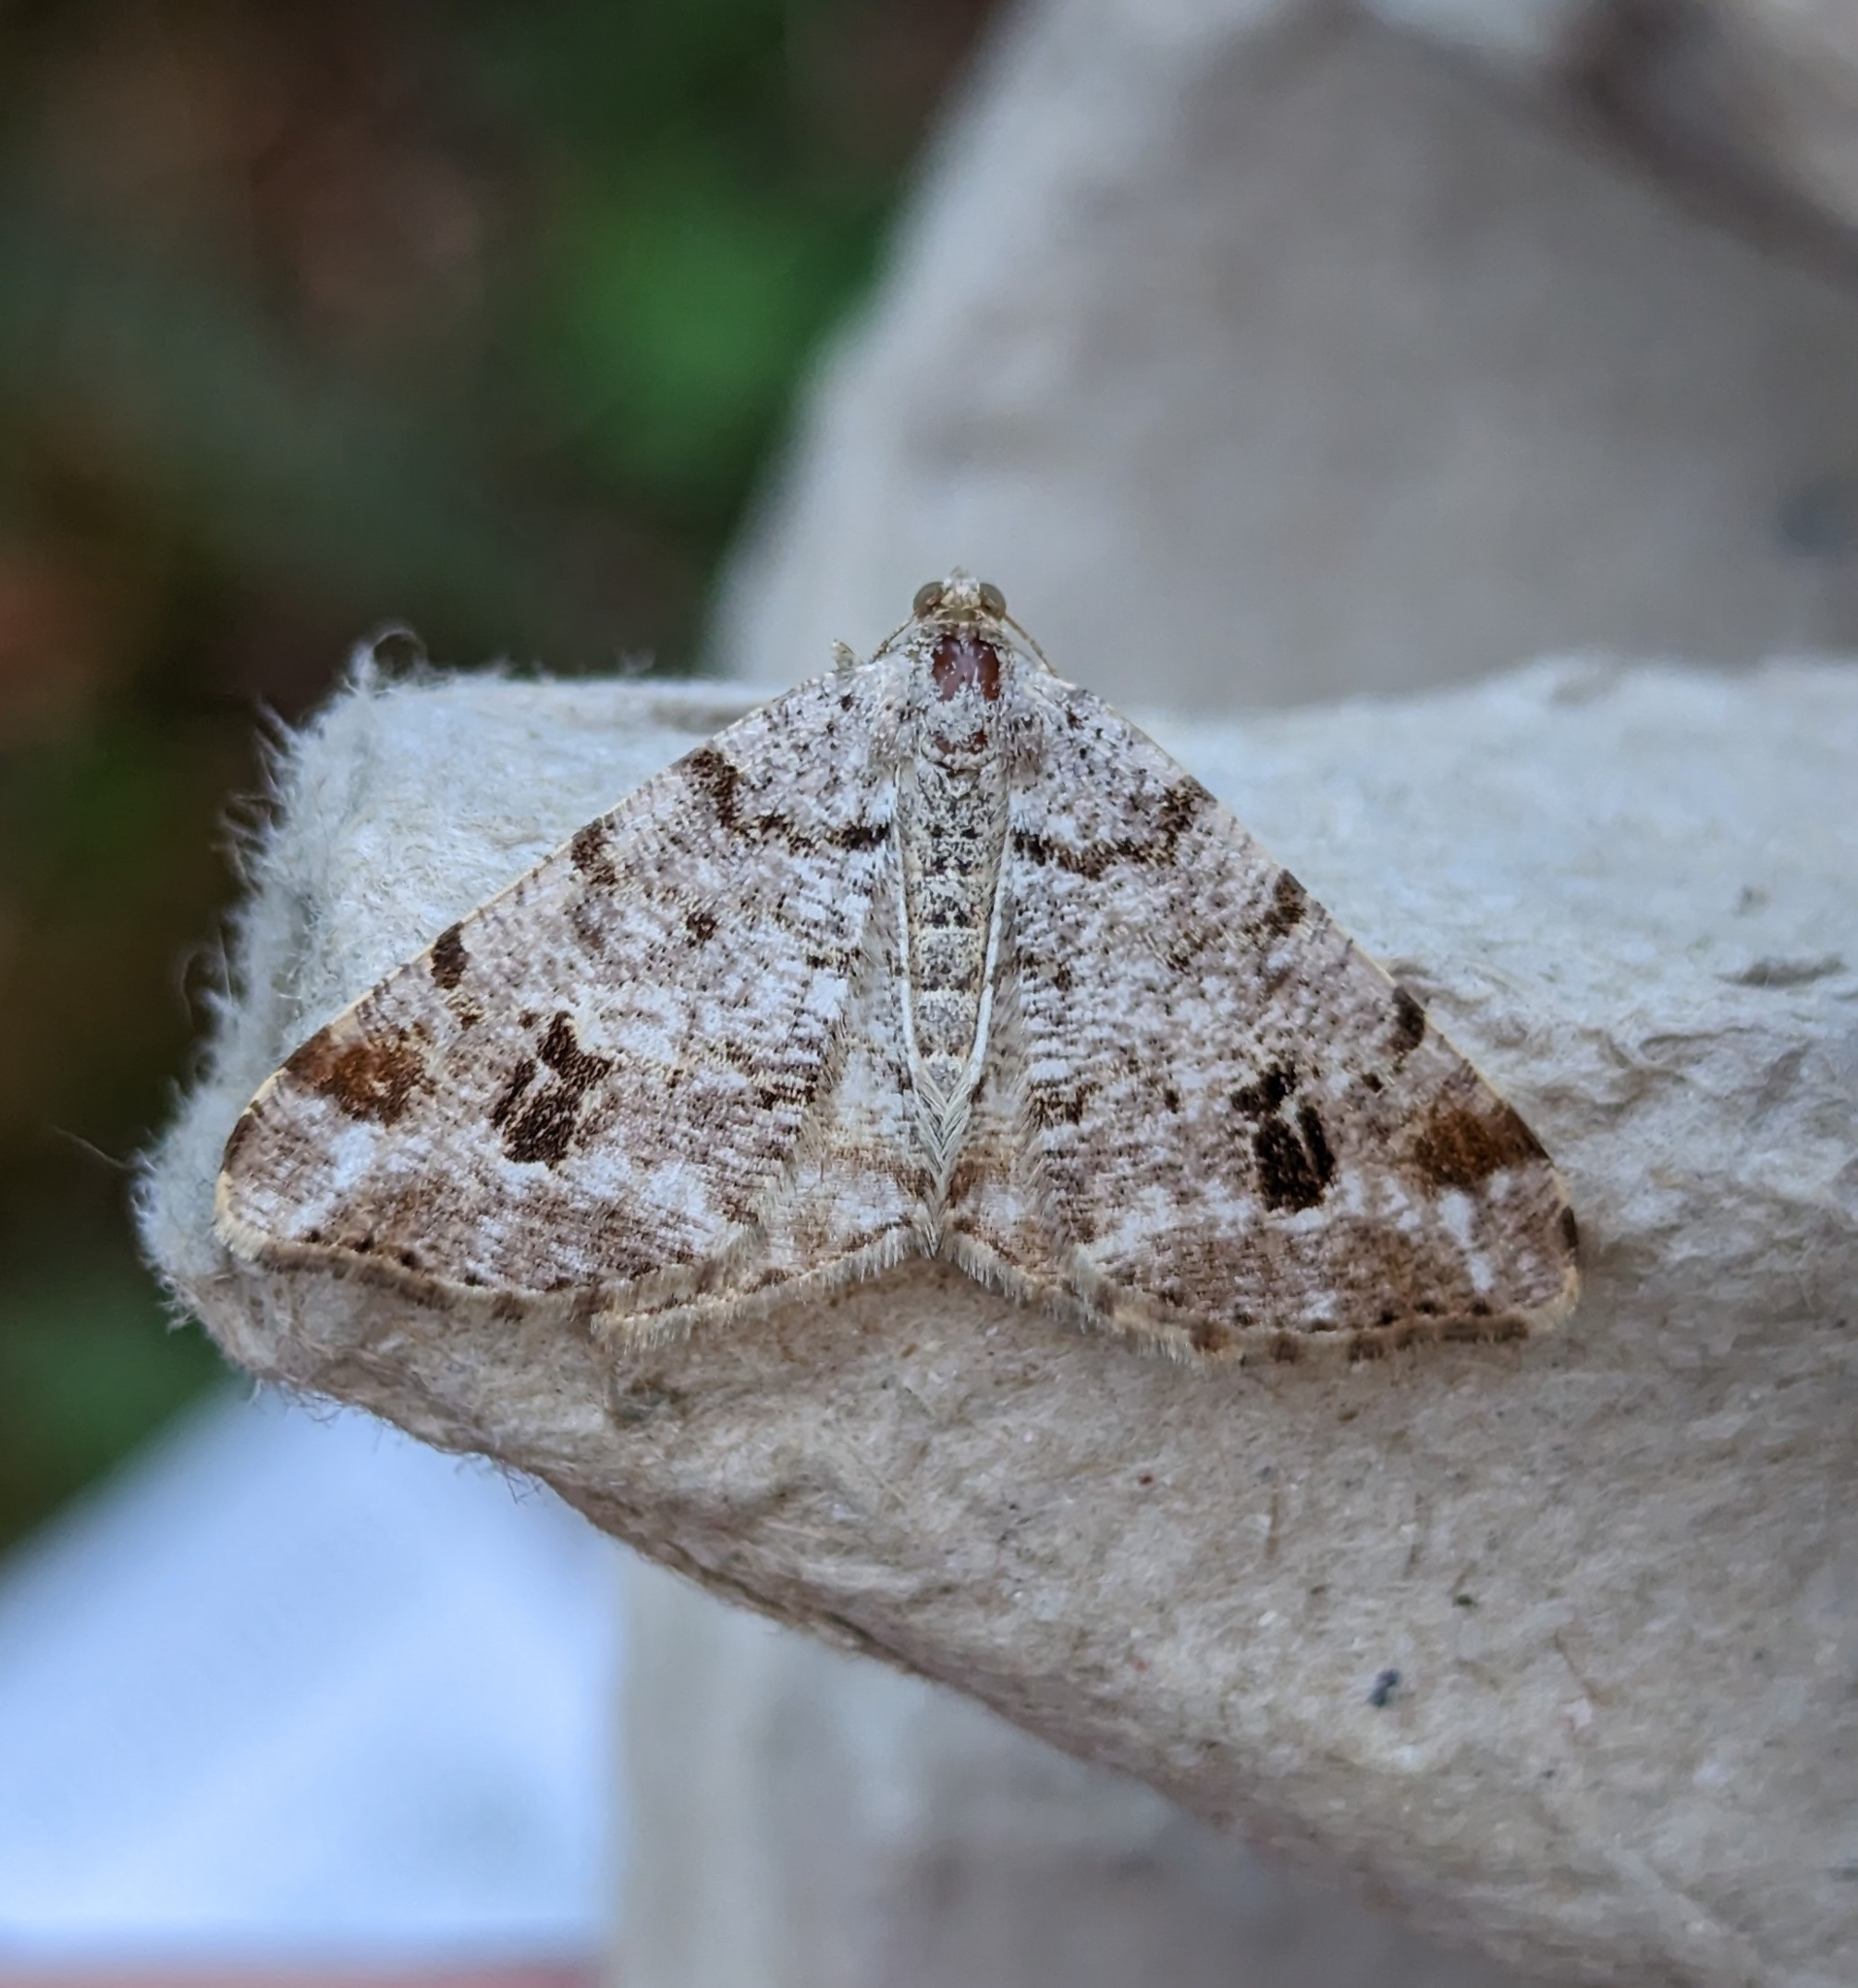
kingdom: Animalia
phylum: Arthropoda
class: Insecta
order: Lepidoptera
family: Geometridae
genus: Macaria
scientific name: Macaria signaria
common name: Dusky peacock
